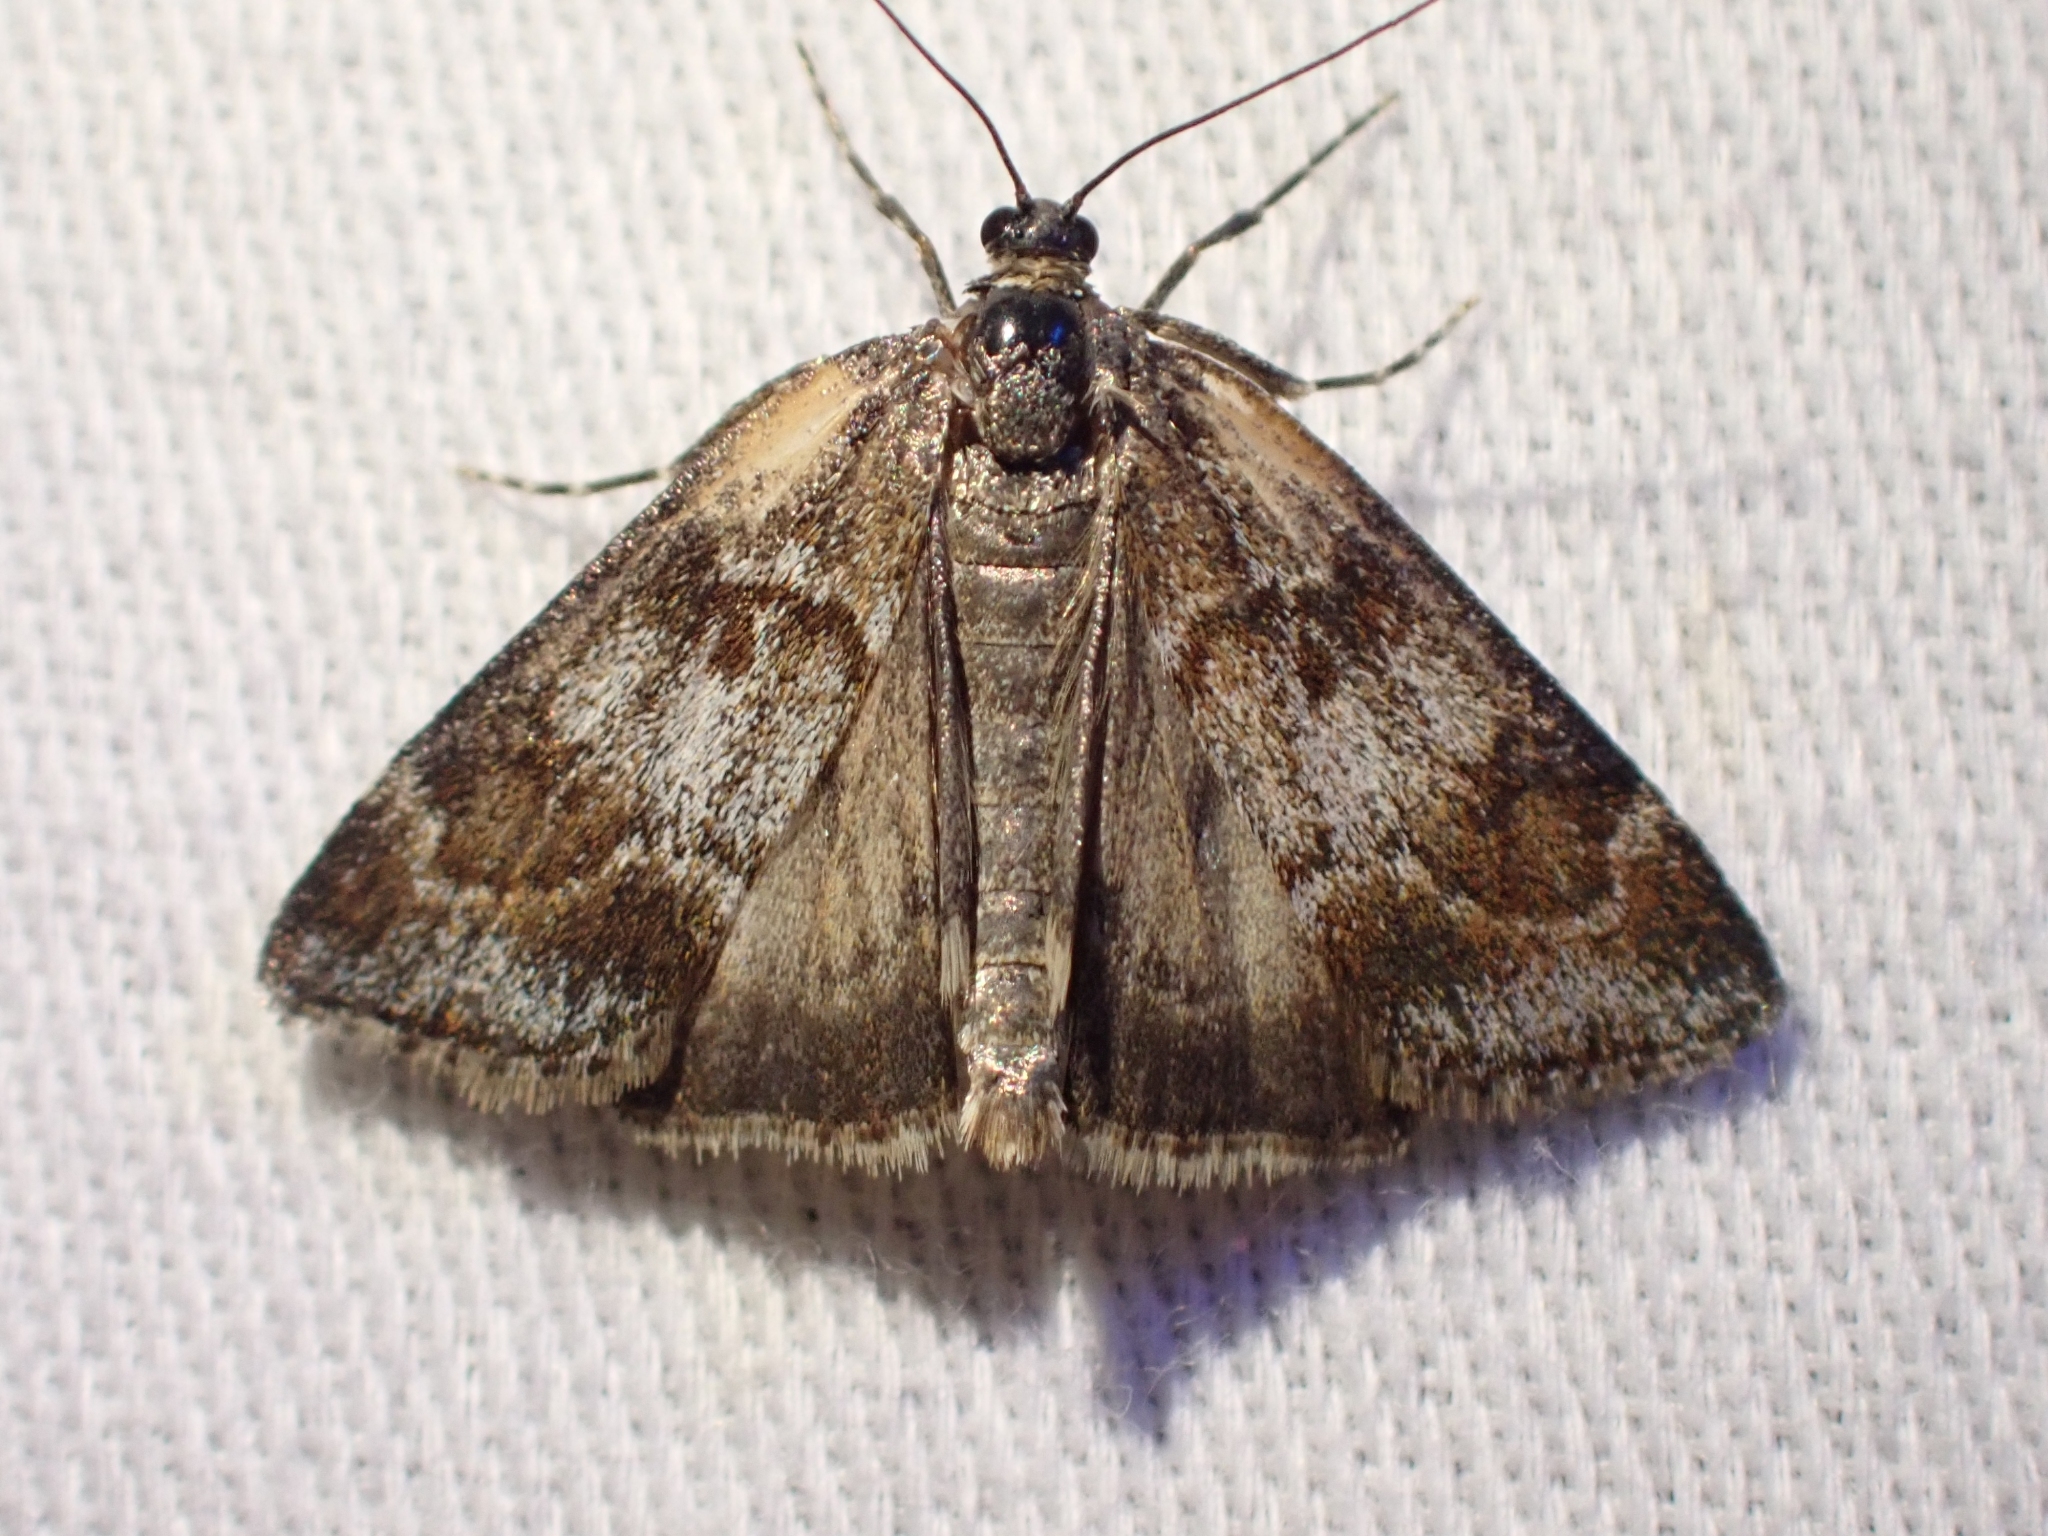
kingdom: Animalia
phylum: Arthropoda
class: Insecta
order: Lepidoptera
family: Crambidae
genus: Cosipara
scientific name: Cosipara tricoloralis
